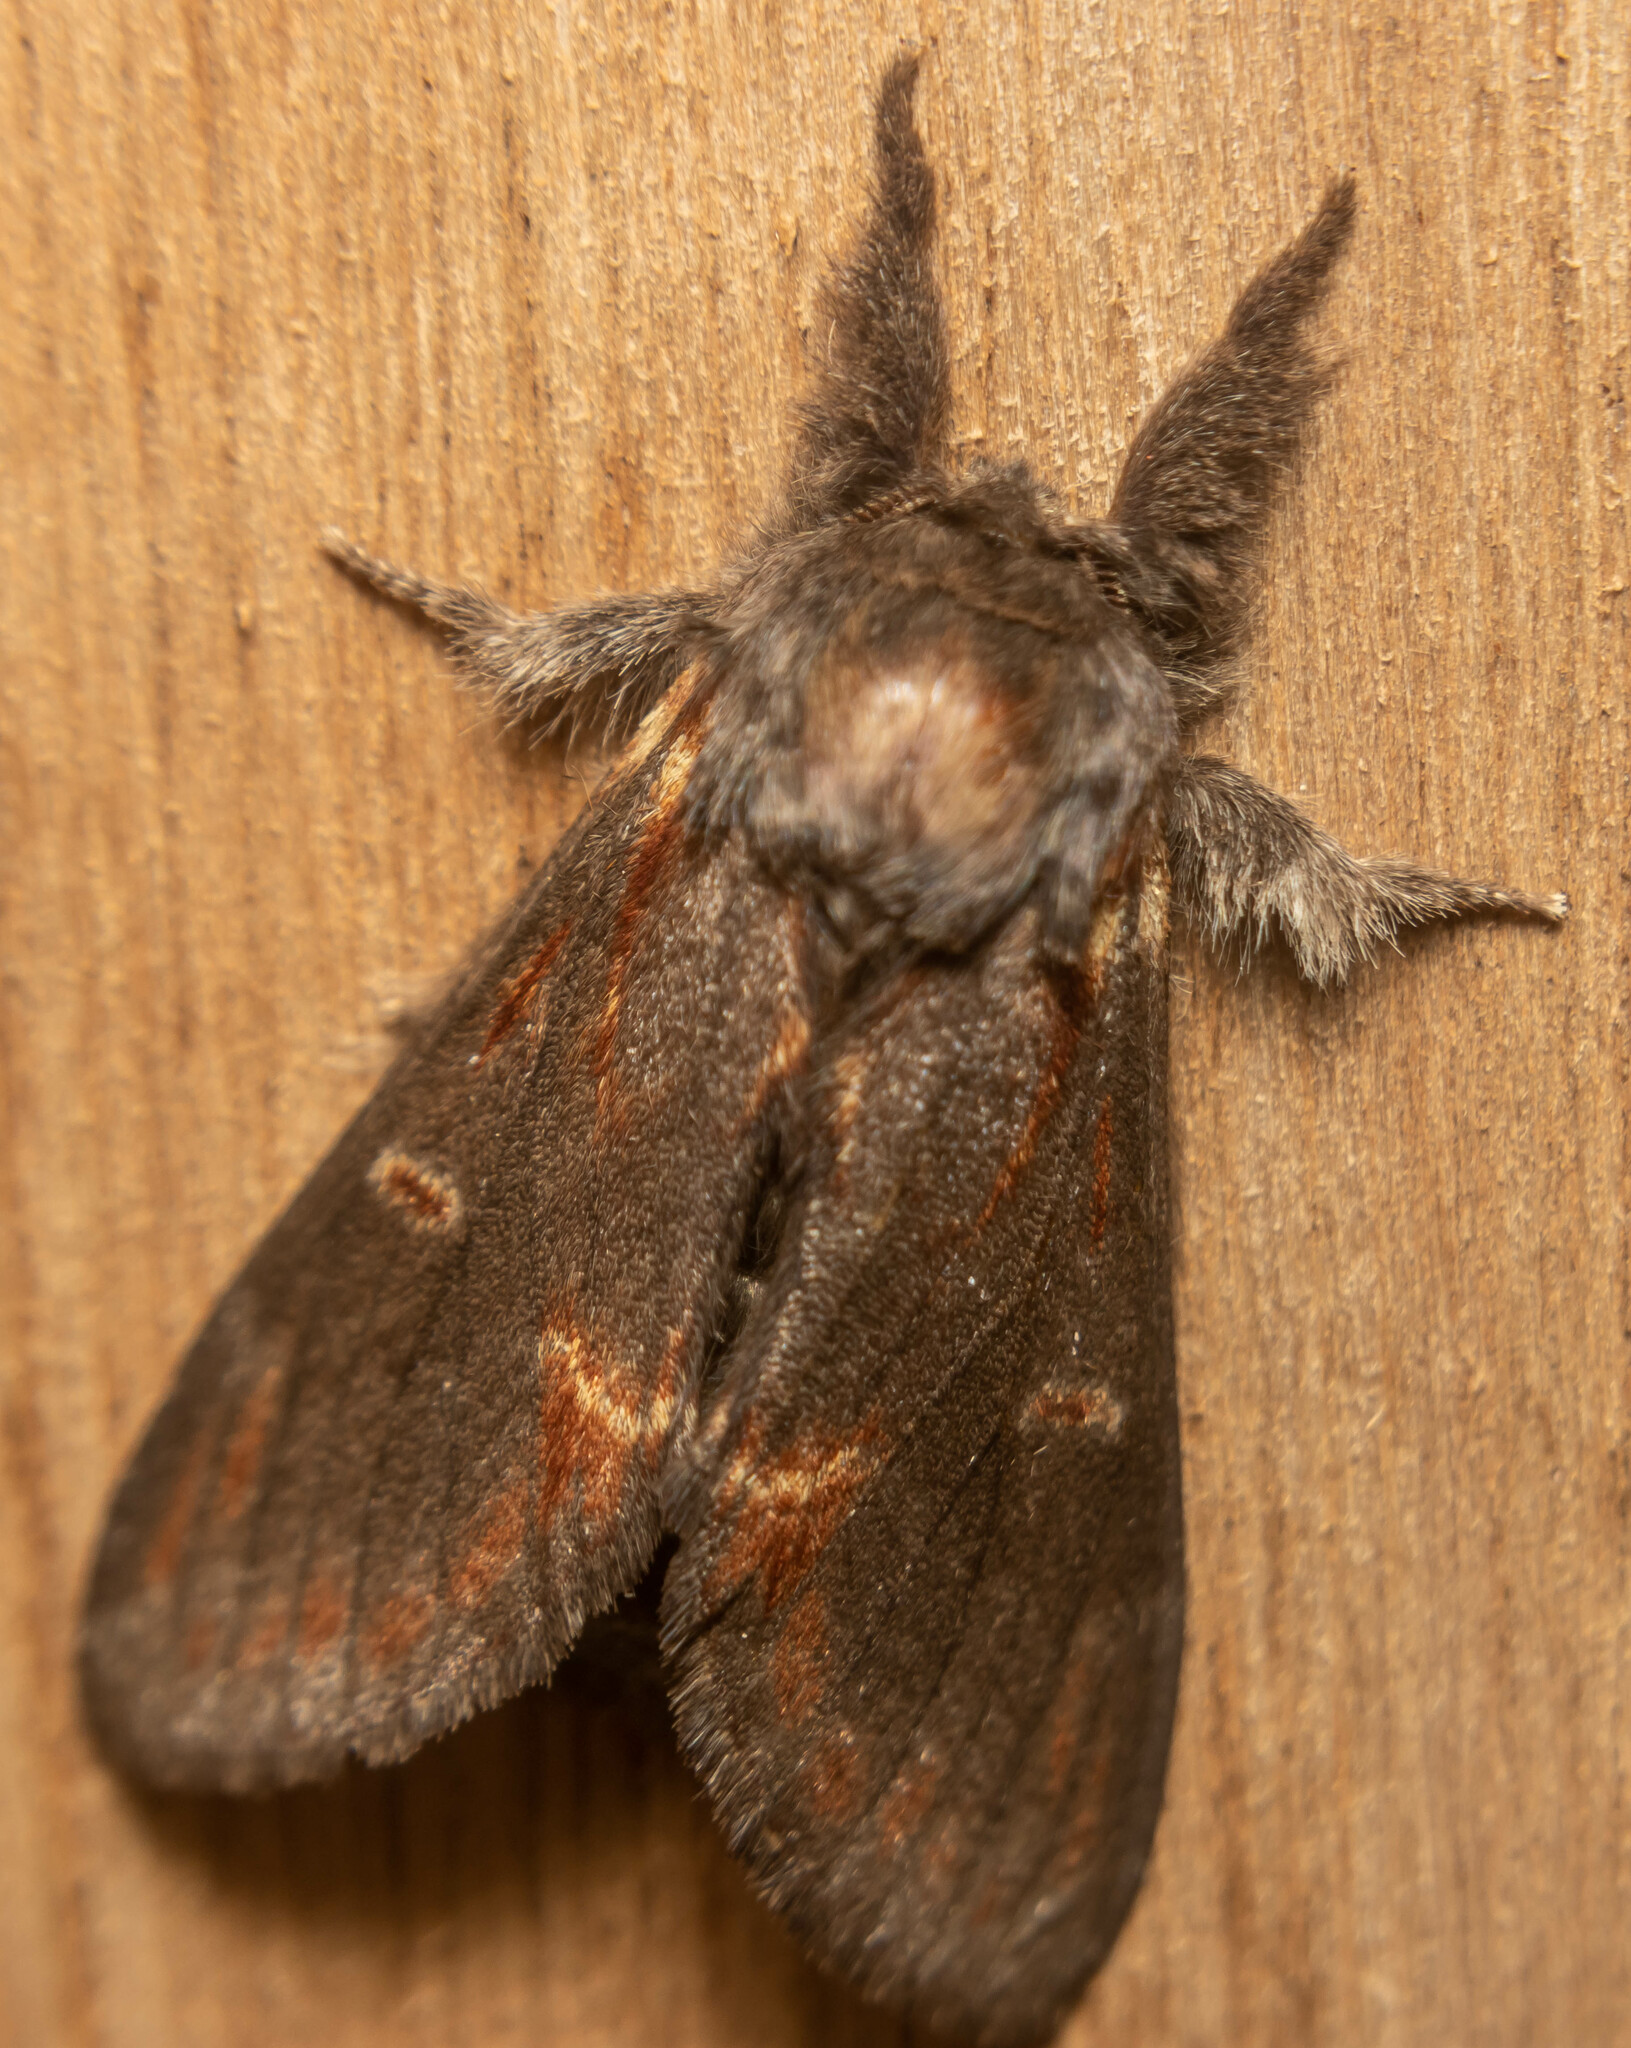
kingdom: Animalia
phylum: Arthropoda
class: Insecta
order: Lepidoptera
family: Notodontidae
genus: Notodonta
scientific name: Notodonta dromedarius
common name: Iron prominent
